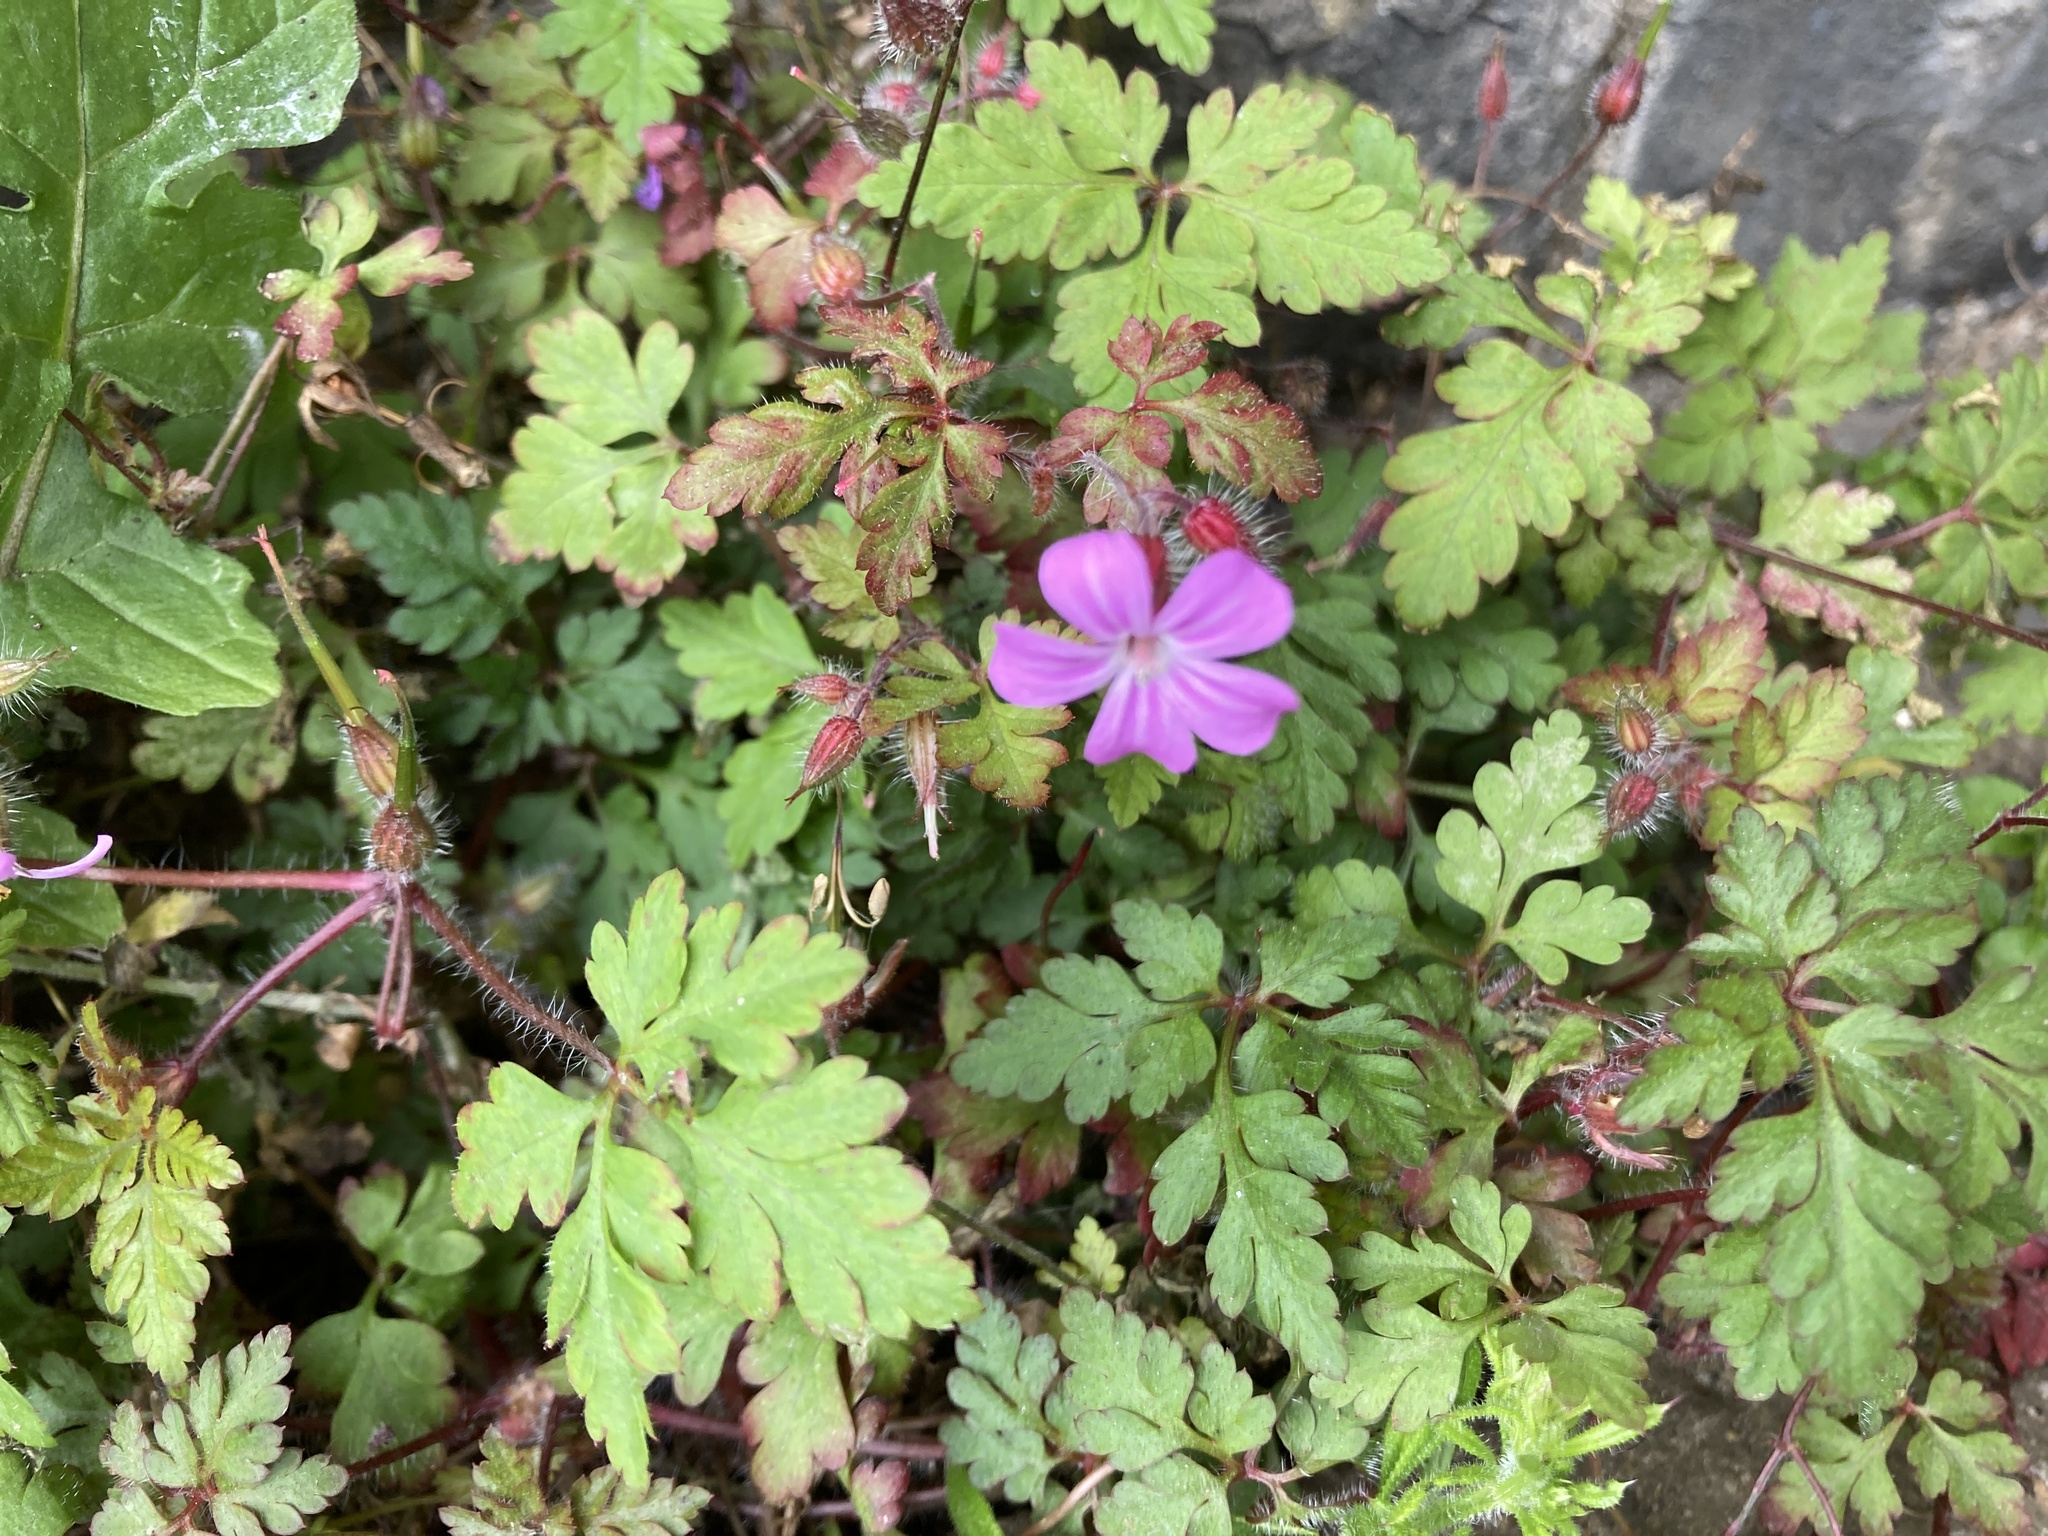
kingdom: Plantae
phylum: Tracheophyta
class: Magnoliopsida
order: Geraniales
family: Geraniaceae
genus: Geranium
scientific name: Geranium robertianum
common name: Herb-robert
